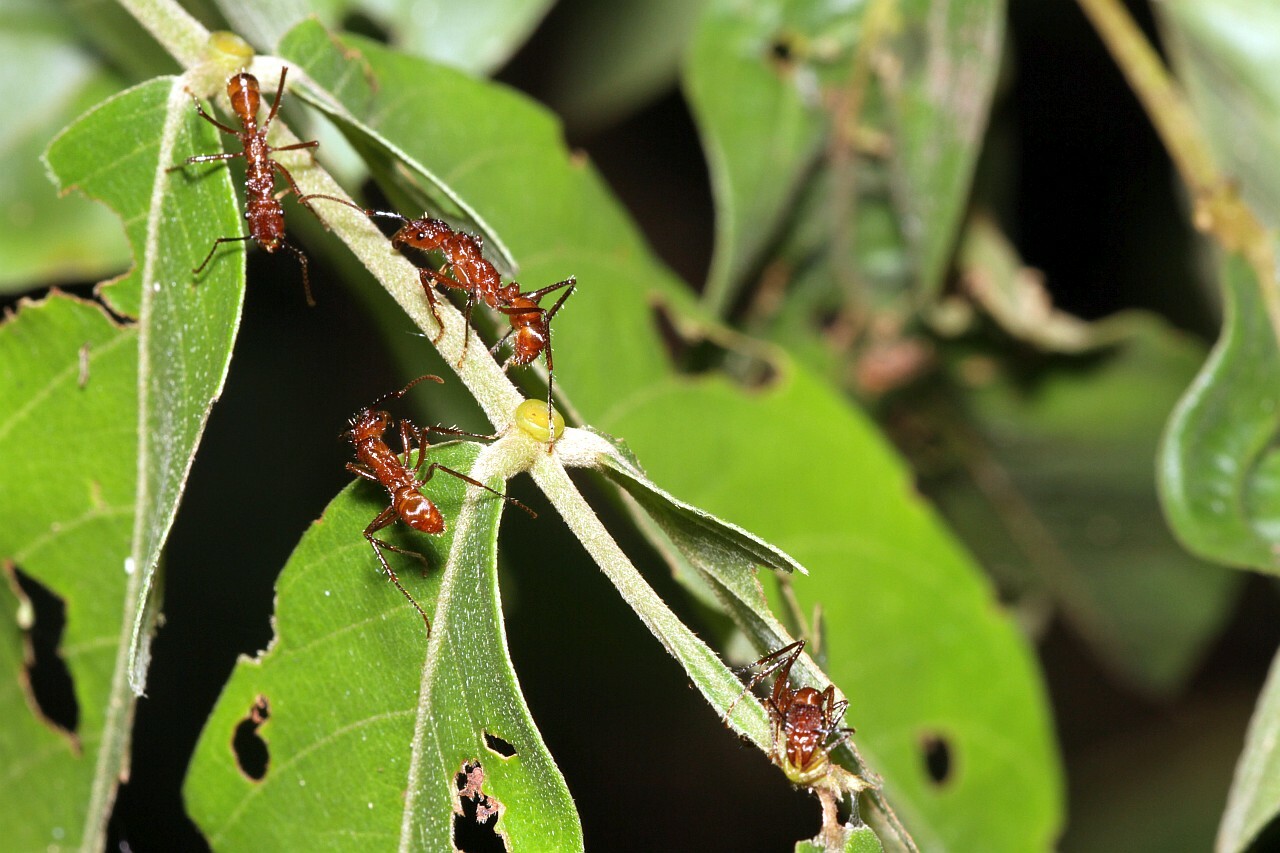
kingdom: Animalia
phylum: Arthropoda
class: Insecta
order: Hymenoptera
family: Formicidae
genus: Ectatomma
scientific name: Ectatomma tuberculatum
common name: Ant
